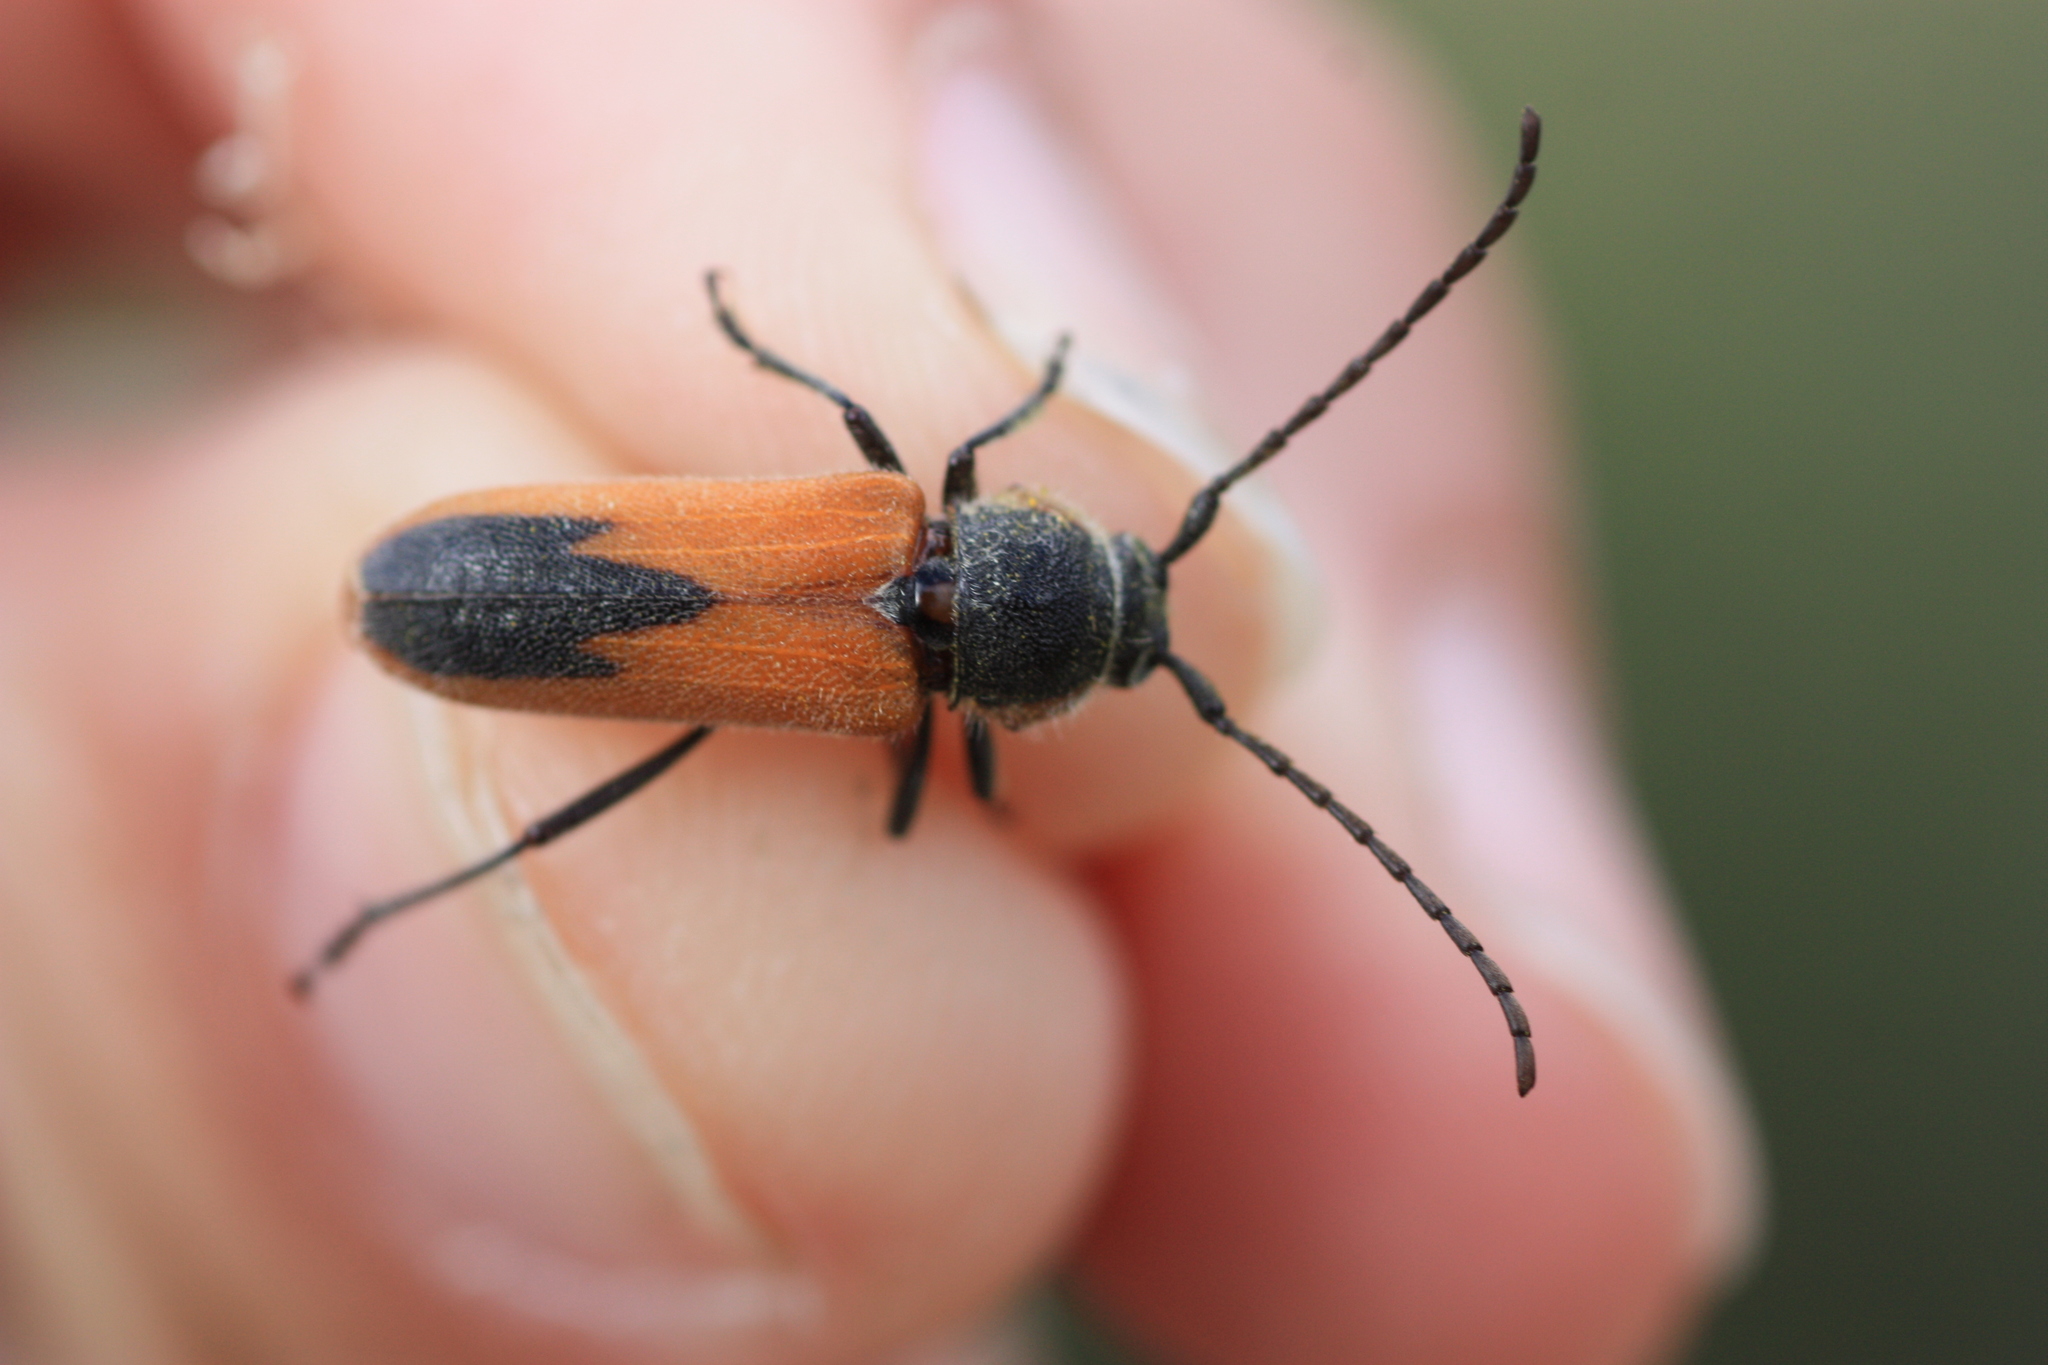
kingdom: Animalia
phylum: Arthropoda
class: Insecta
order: Coleoptera
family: Cerambycidae
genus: Crossidius
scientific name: Crossidius pulchellus
